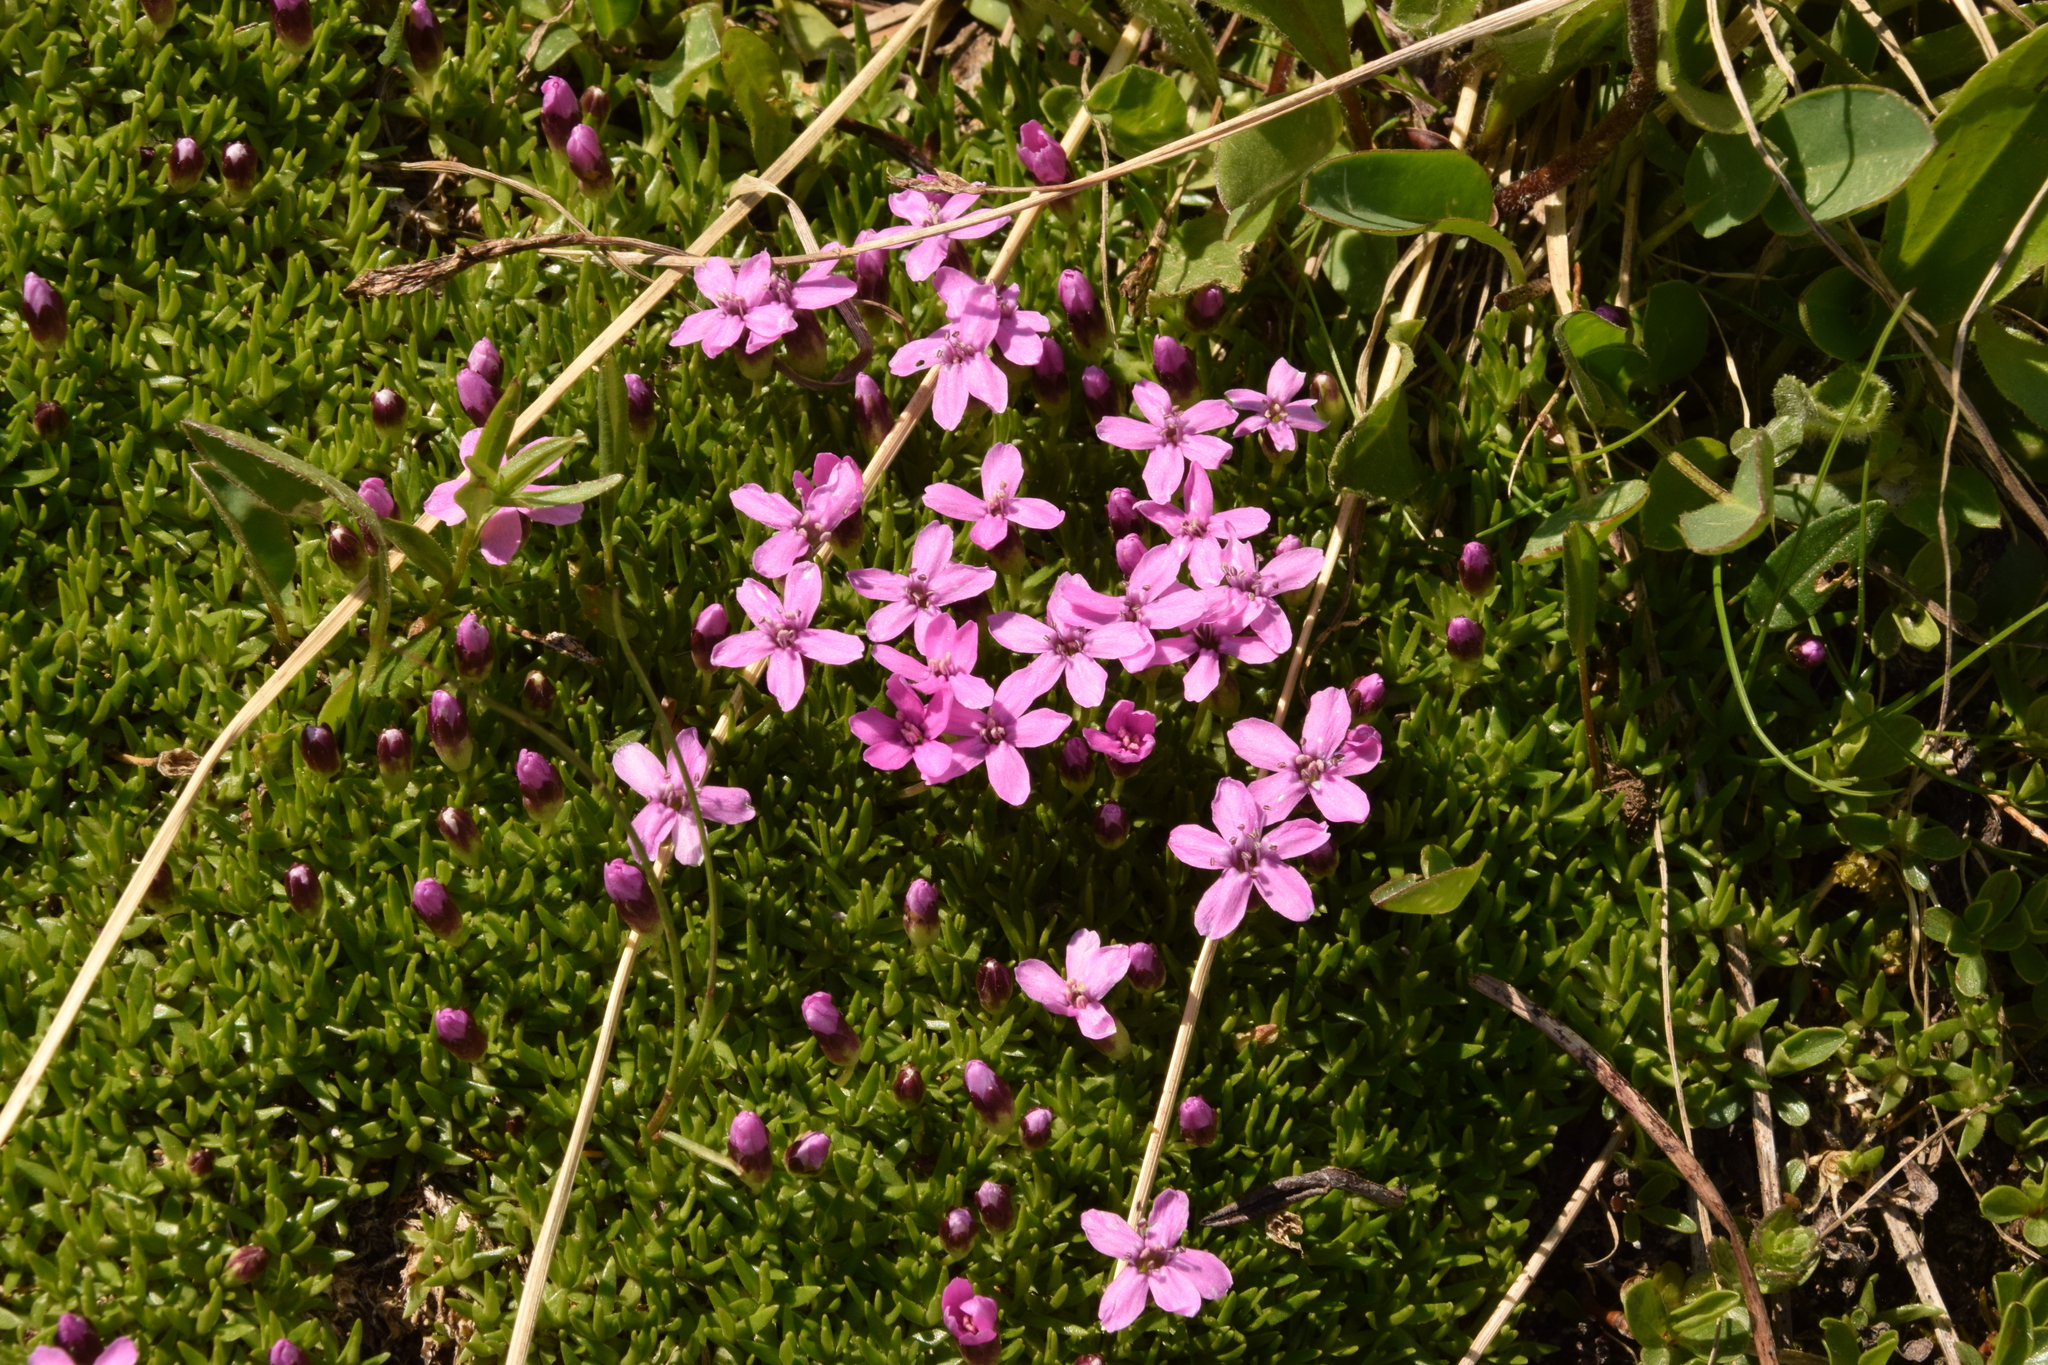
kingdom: Plantae
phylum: Tracheophyta
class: Magnoliopsida
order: Caryophyllales
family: Caryophyllaceae
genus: Silene
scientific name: Silene acaulis
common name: Moss campion
